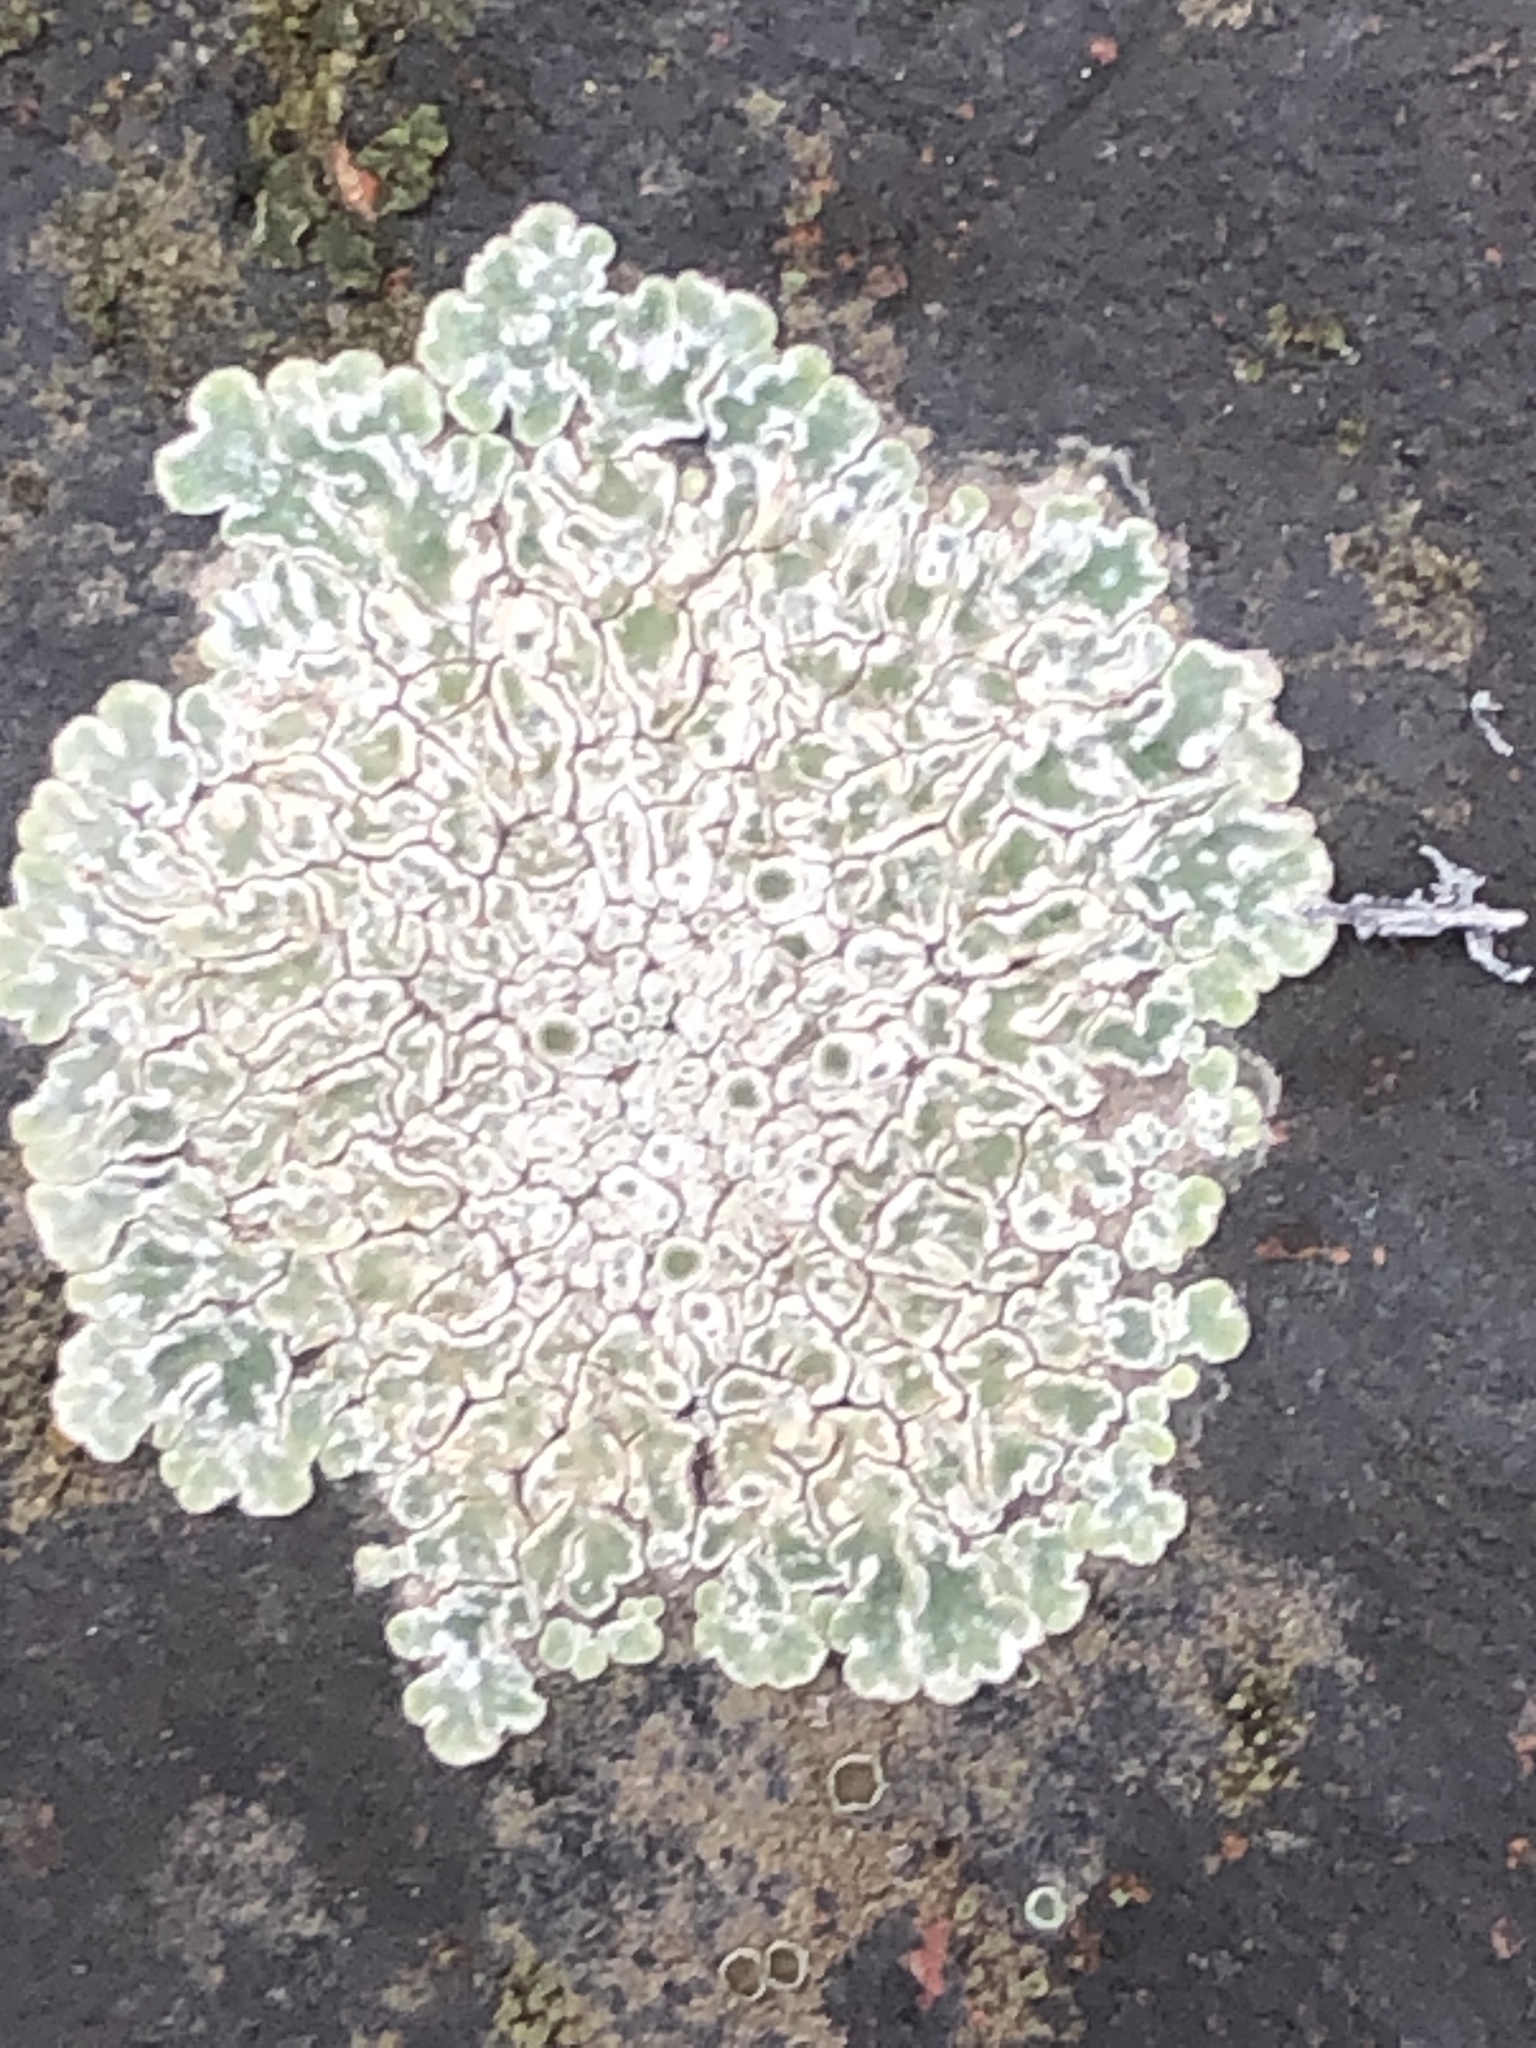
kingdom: Fungi
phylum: Ascomycota
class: Lecanoromycetes
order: Lecanorales
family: Lecanoraceae
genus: Protoparmeliopsis
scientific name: Protoparmeliopsis muralis
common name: Stonewall rim lichen
